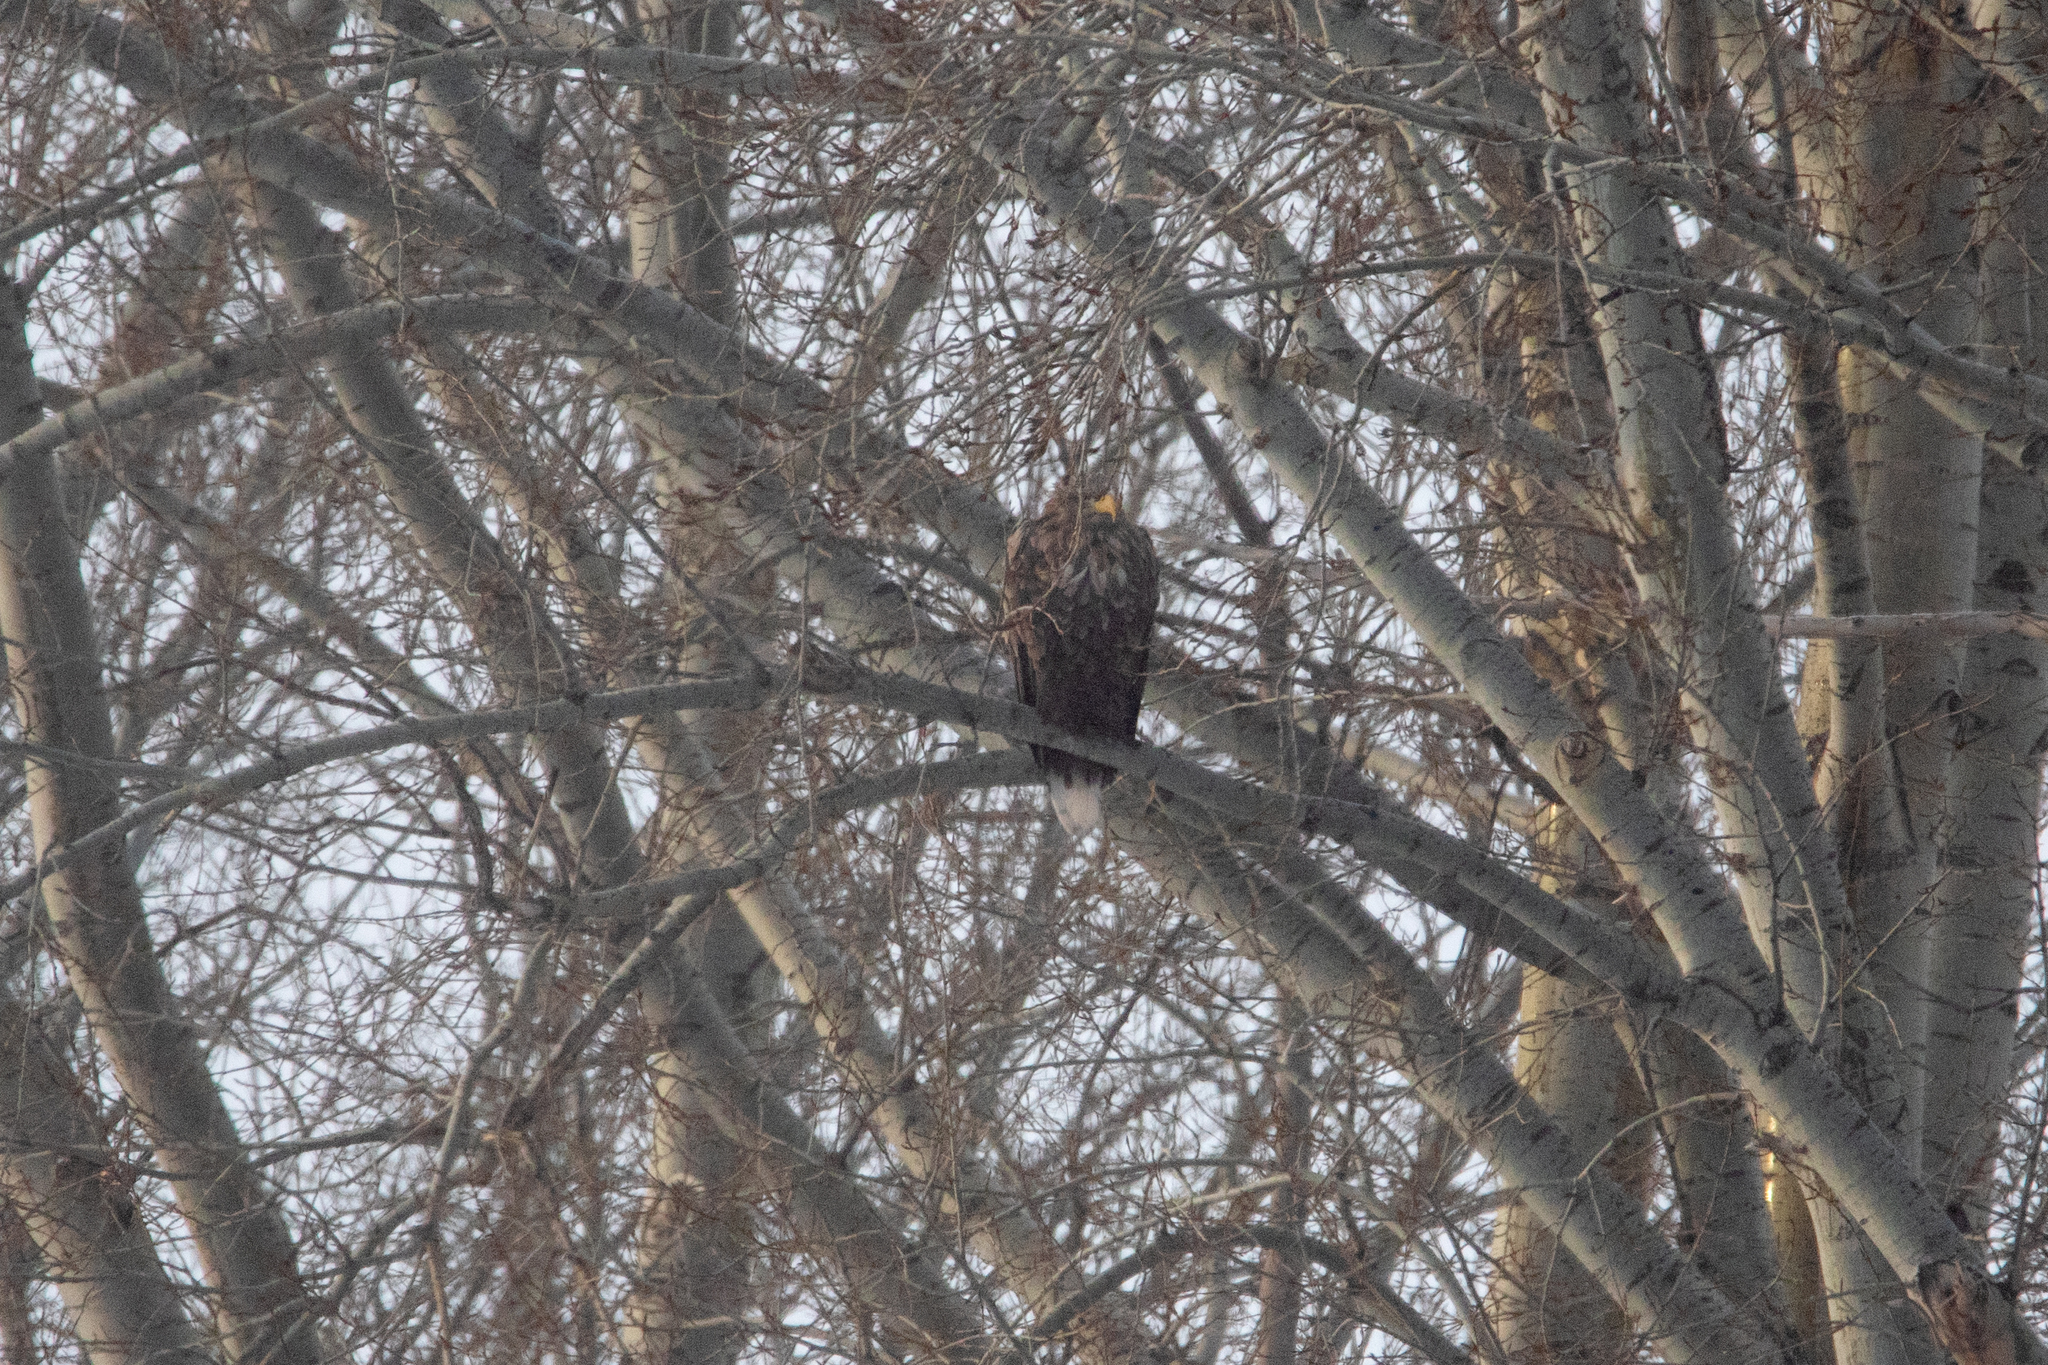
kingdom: Animalia
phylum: Chordata
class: Aves
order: Accipitriformes
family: Accipitridae
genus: Haliaeetus
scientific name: Haliaeetus albicilla
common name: White-tailed eagle
